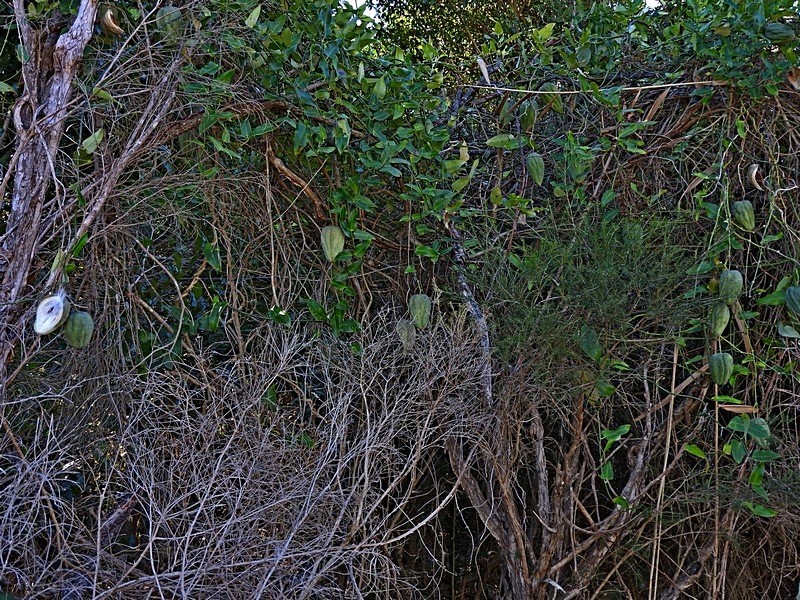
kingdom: Plantae
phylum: Tracheophyta
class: Magnoliopsida
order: Gentianales
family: Apocynaceae
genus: Araujia
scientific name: Araujia sericifera
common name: White bladderflower
